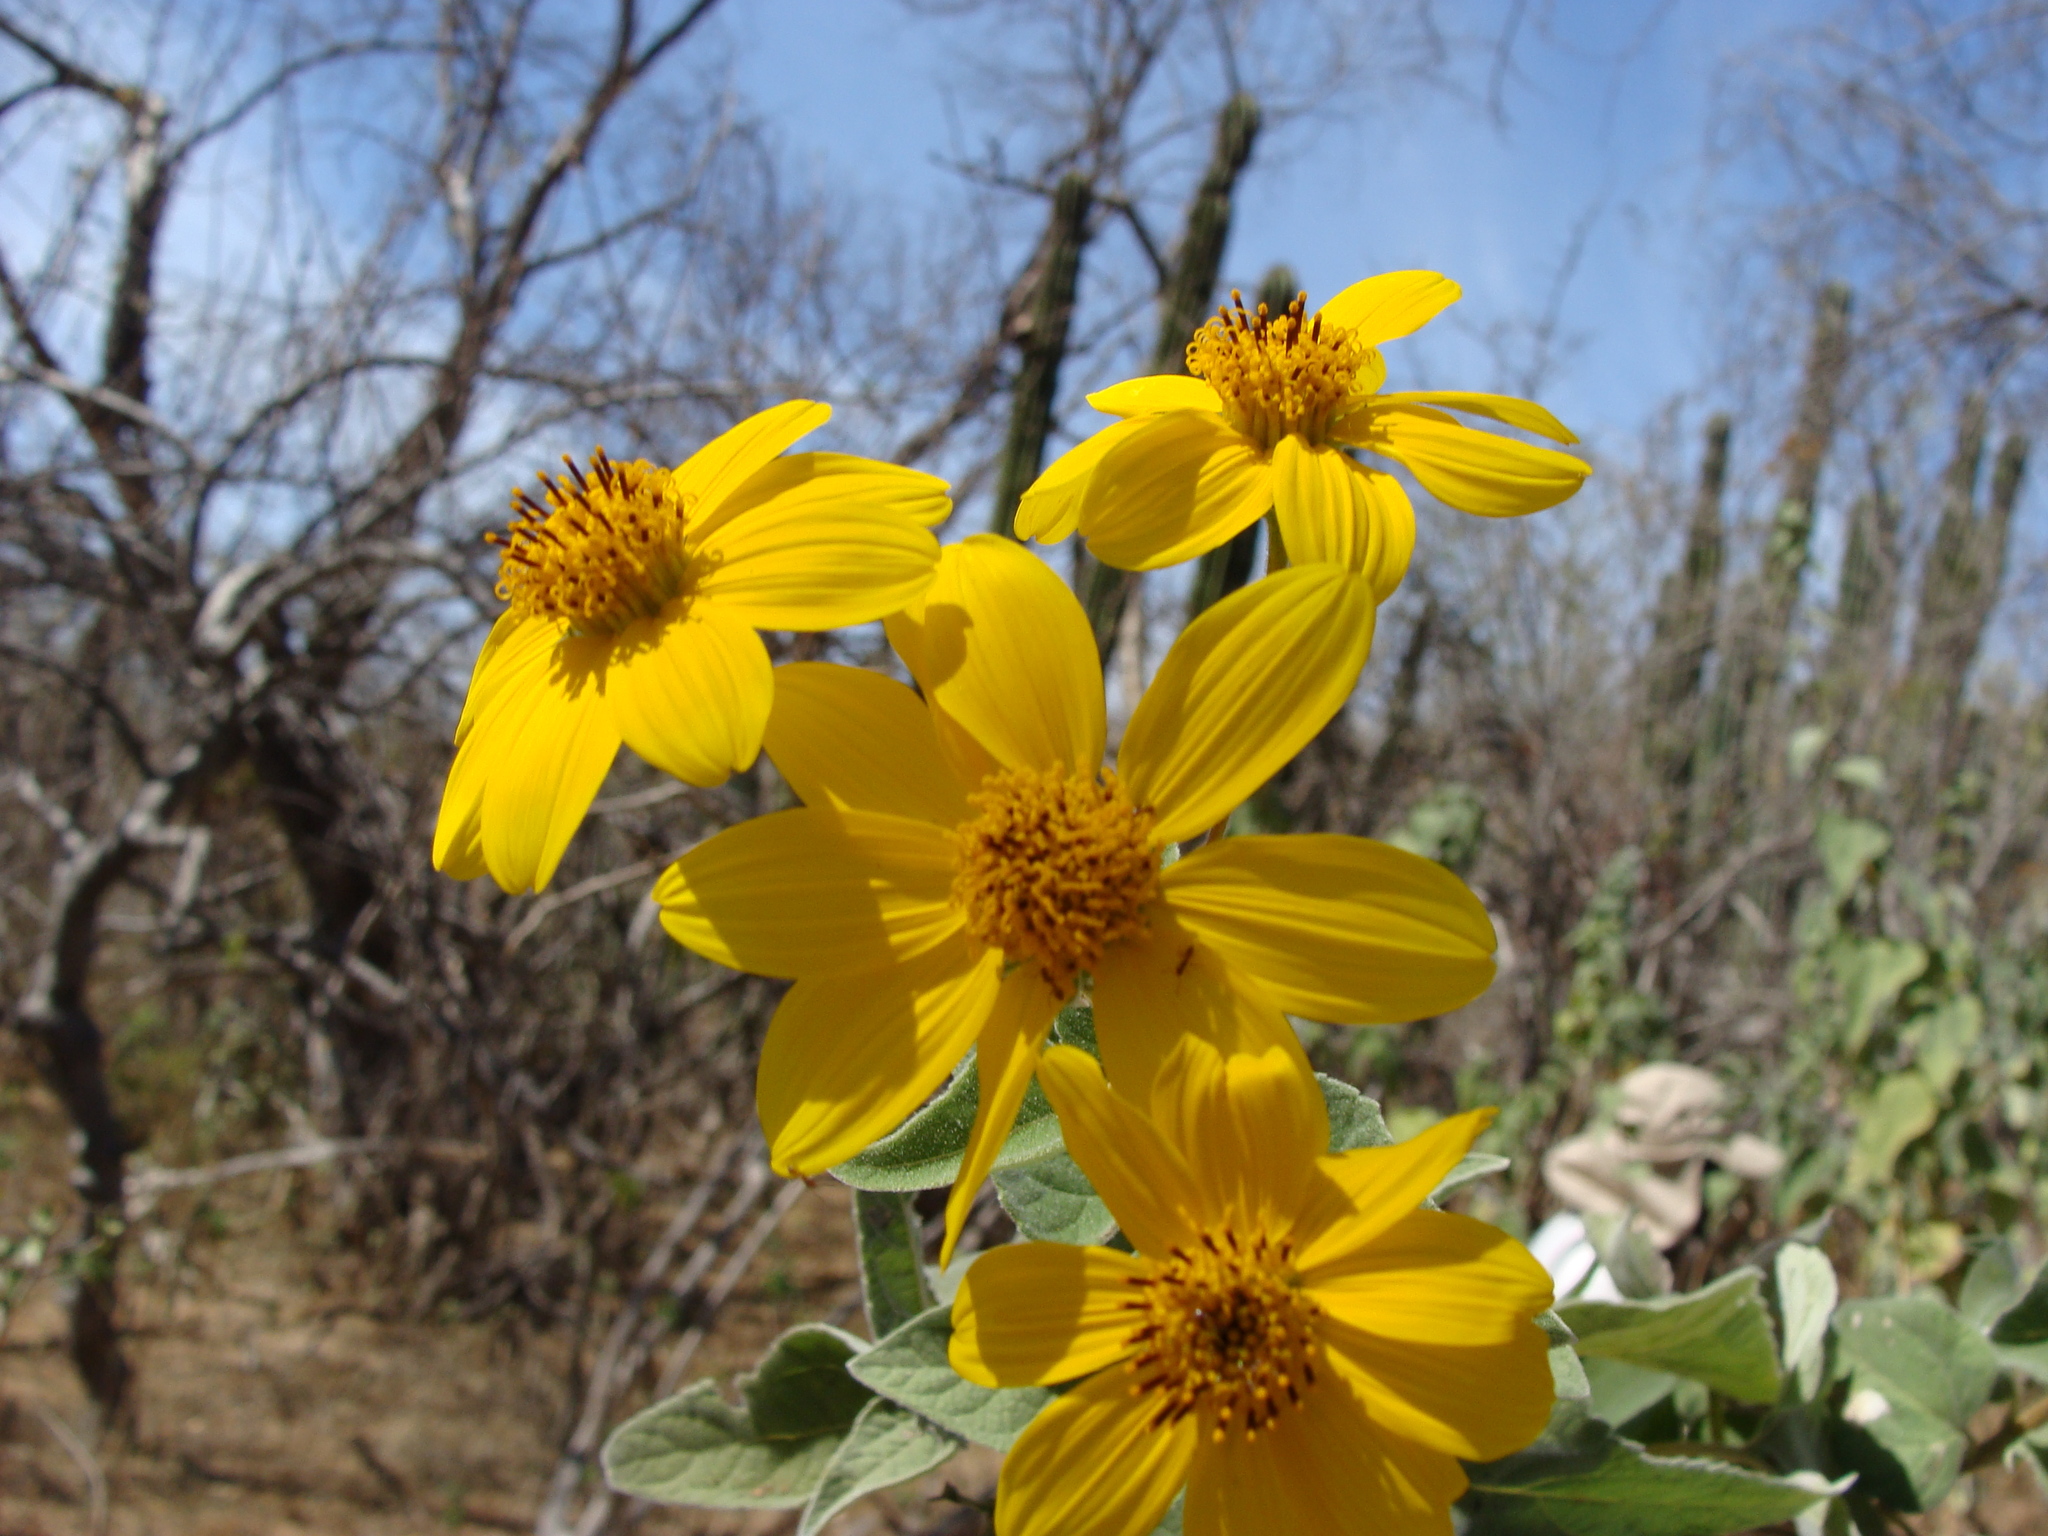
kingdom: Plantae
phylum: Tracheophyta
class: Magnoliopsida
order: Asterales
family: Asteraceae
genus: Bahiopsis
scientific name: Bahiopsis tomentosa
